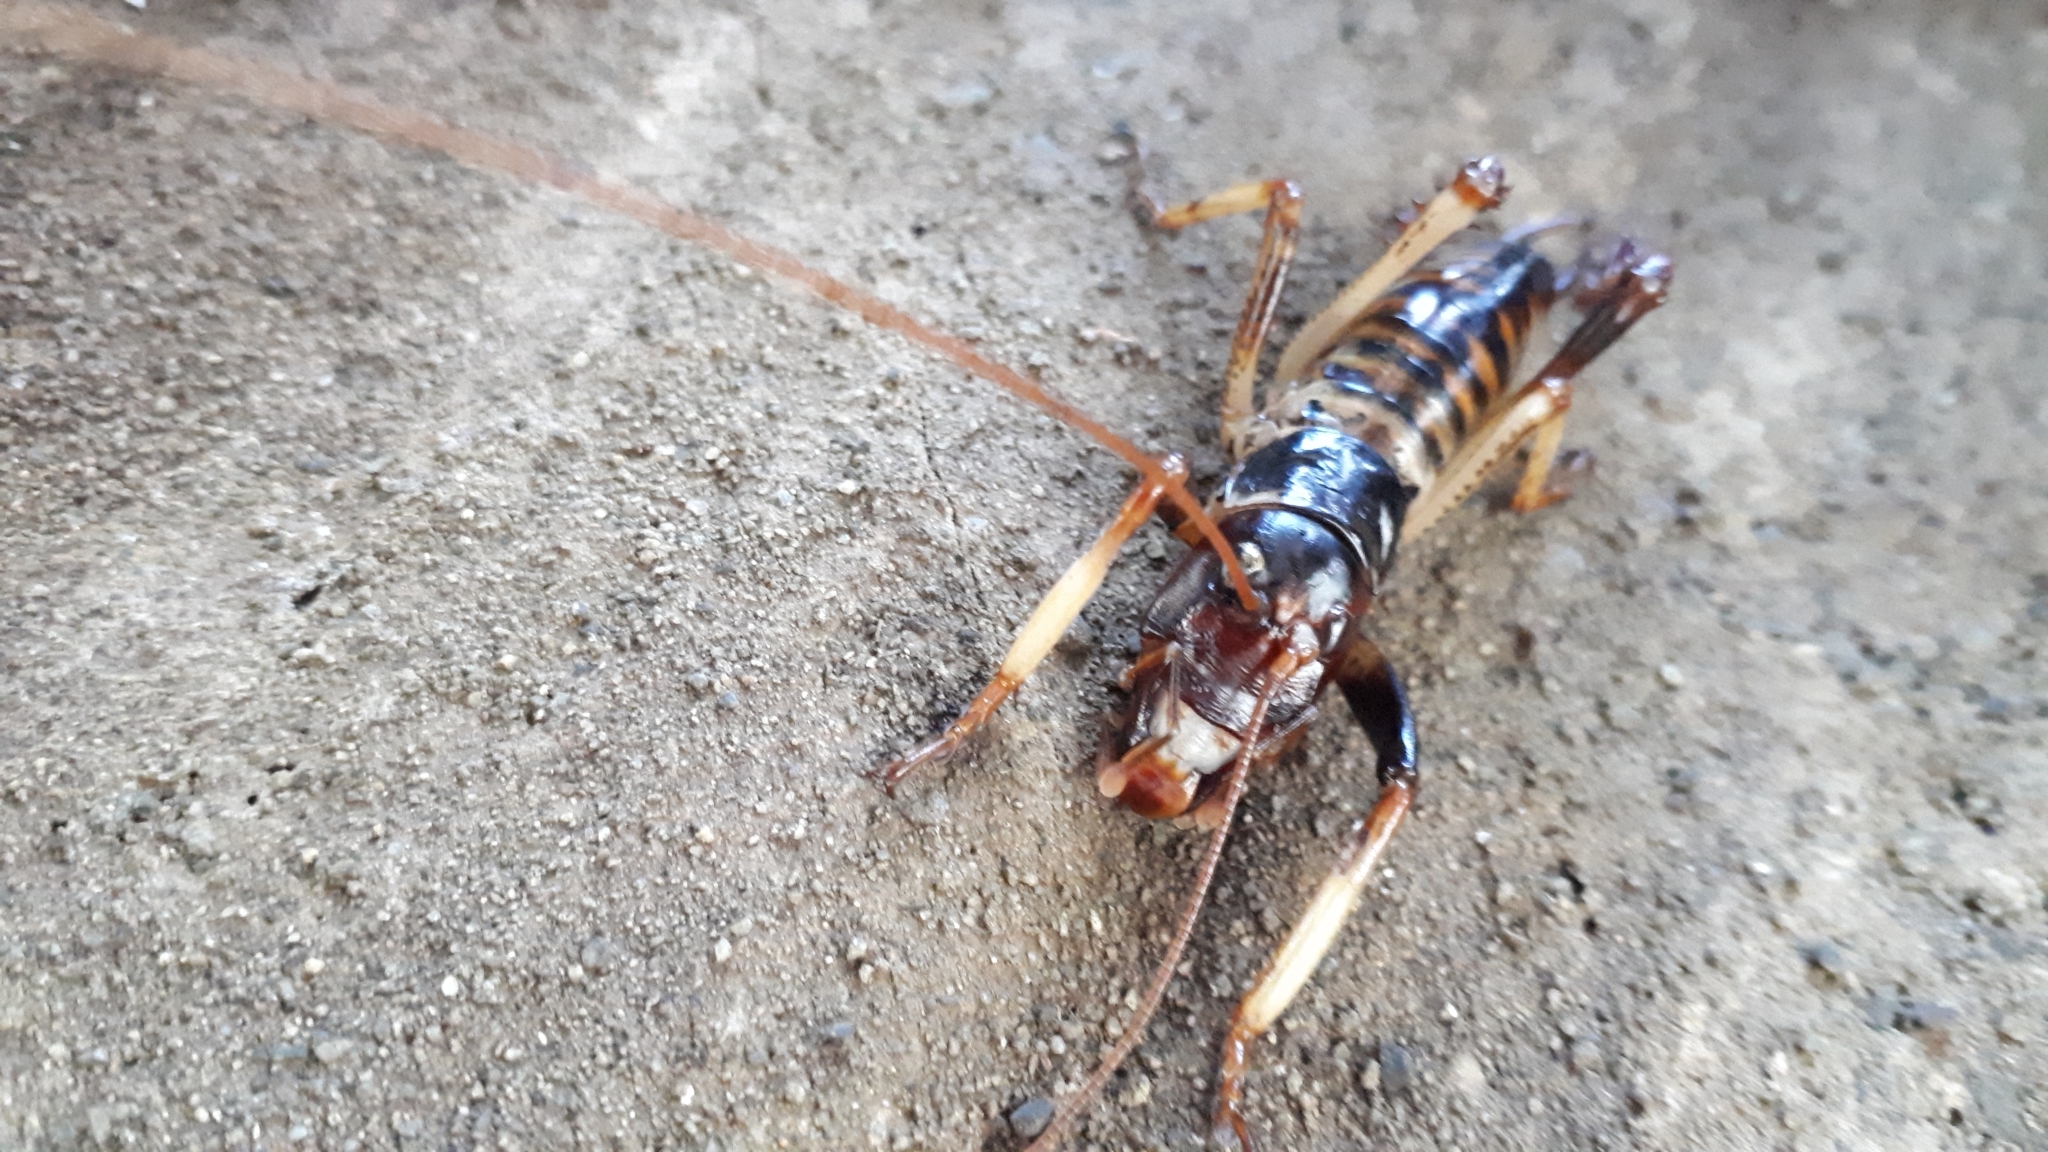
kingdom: Animalia
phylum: Arthropoda
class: Insecta
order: Orthoptera
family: Anostostomatidae
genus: Hemideina
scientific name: Hemideina crassidens
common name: Wellington tree weta
